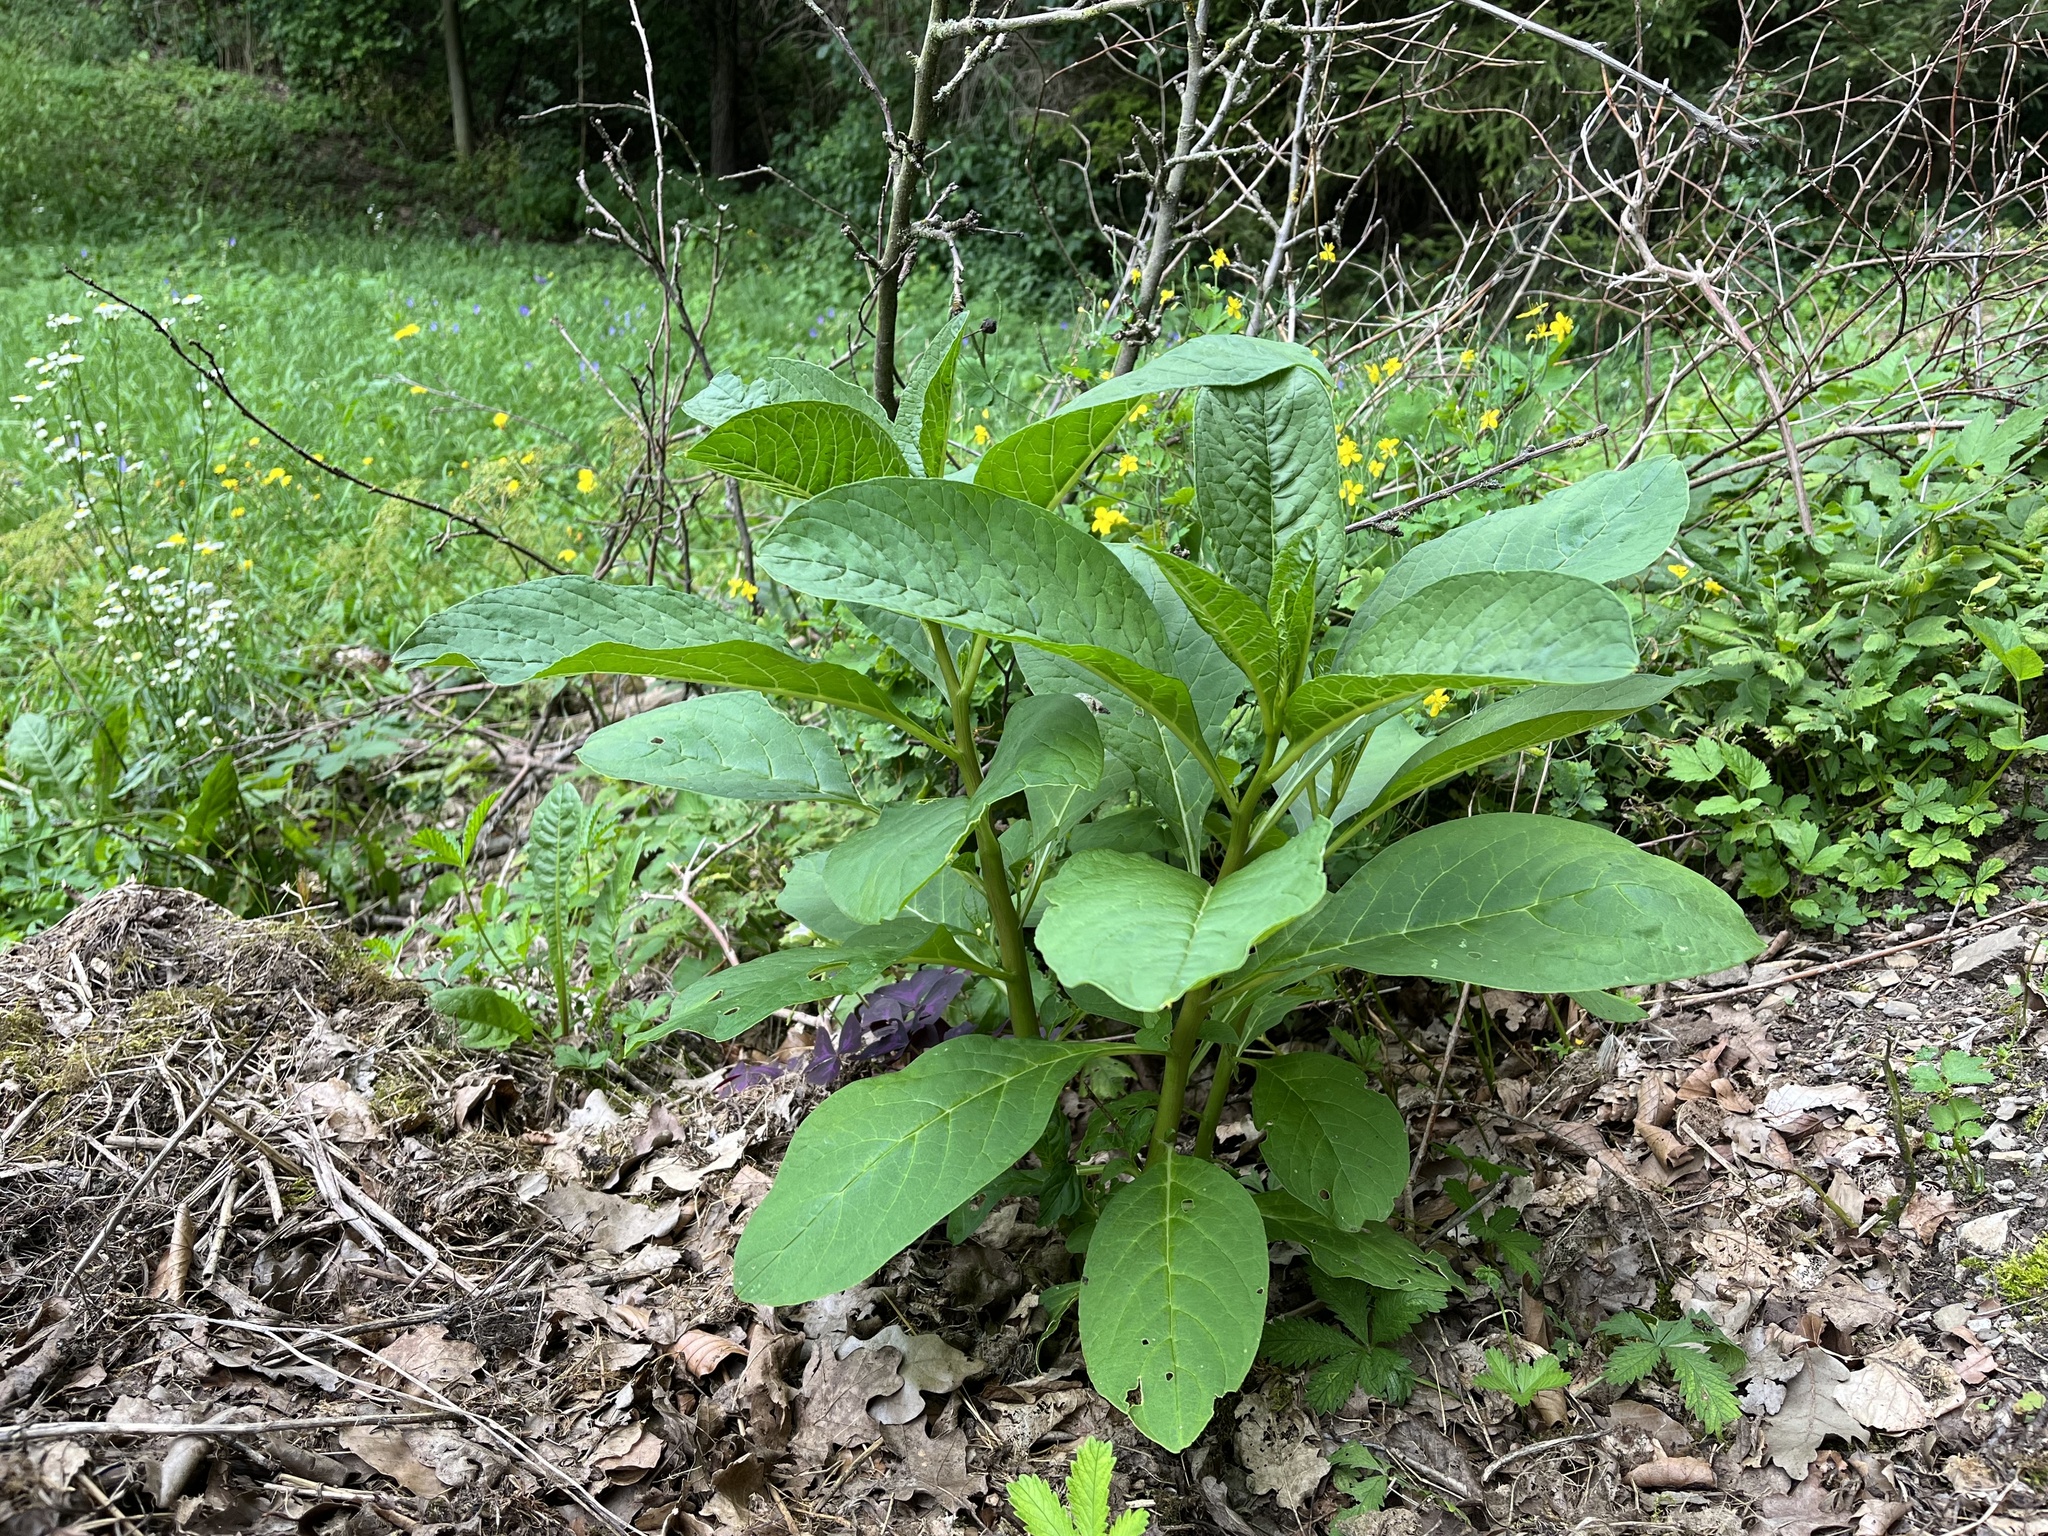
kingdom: Plantae
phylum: Tracheophyta
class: Magnoliopsida
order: Caryophyllales
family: Phytolaccaceae
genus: Phytolacca
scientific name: Phytolacca acinosa
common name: Indian pokeweed
